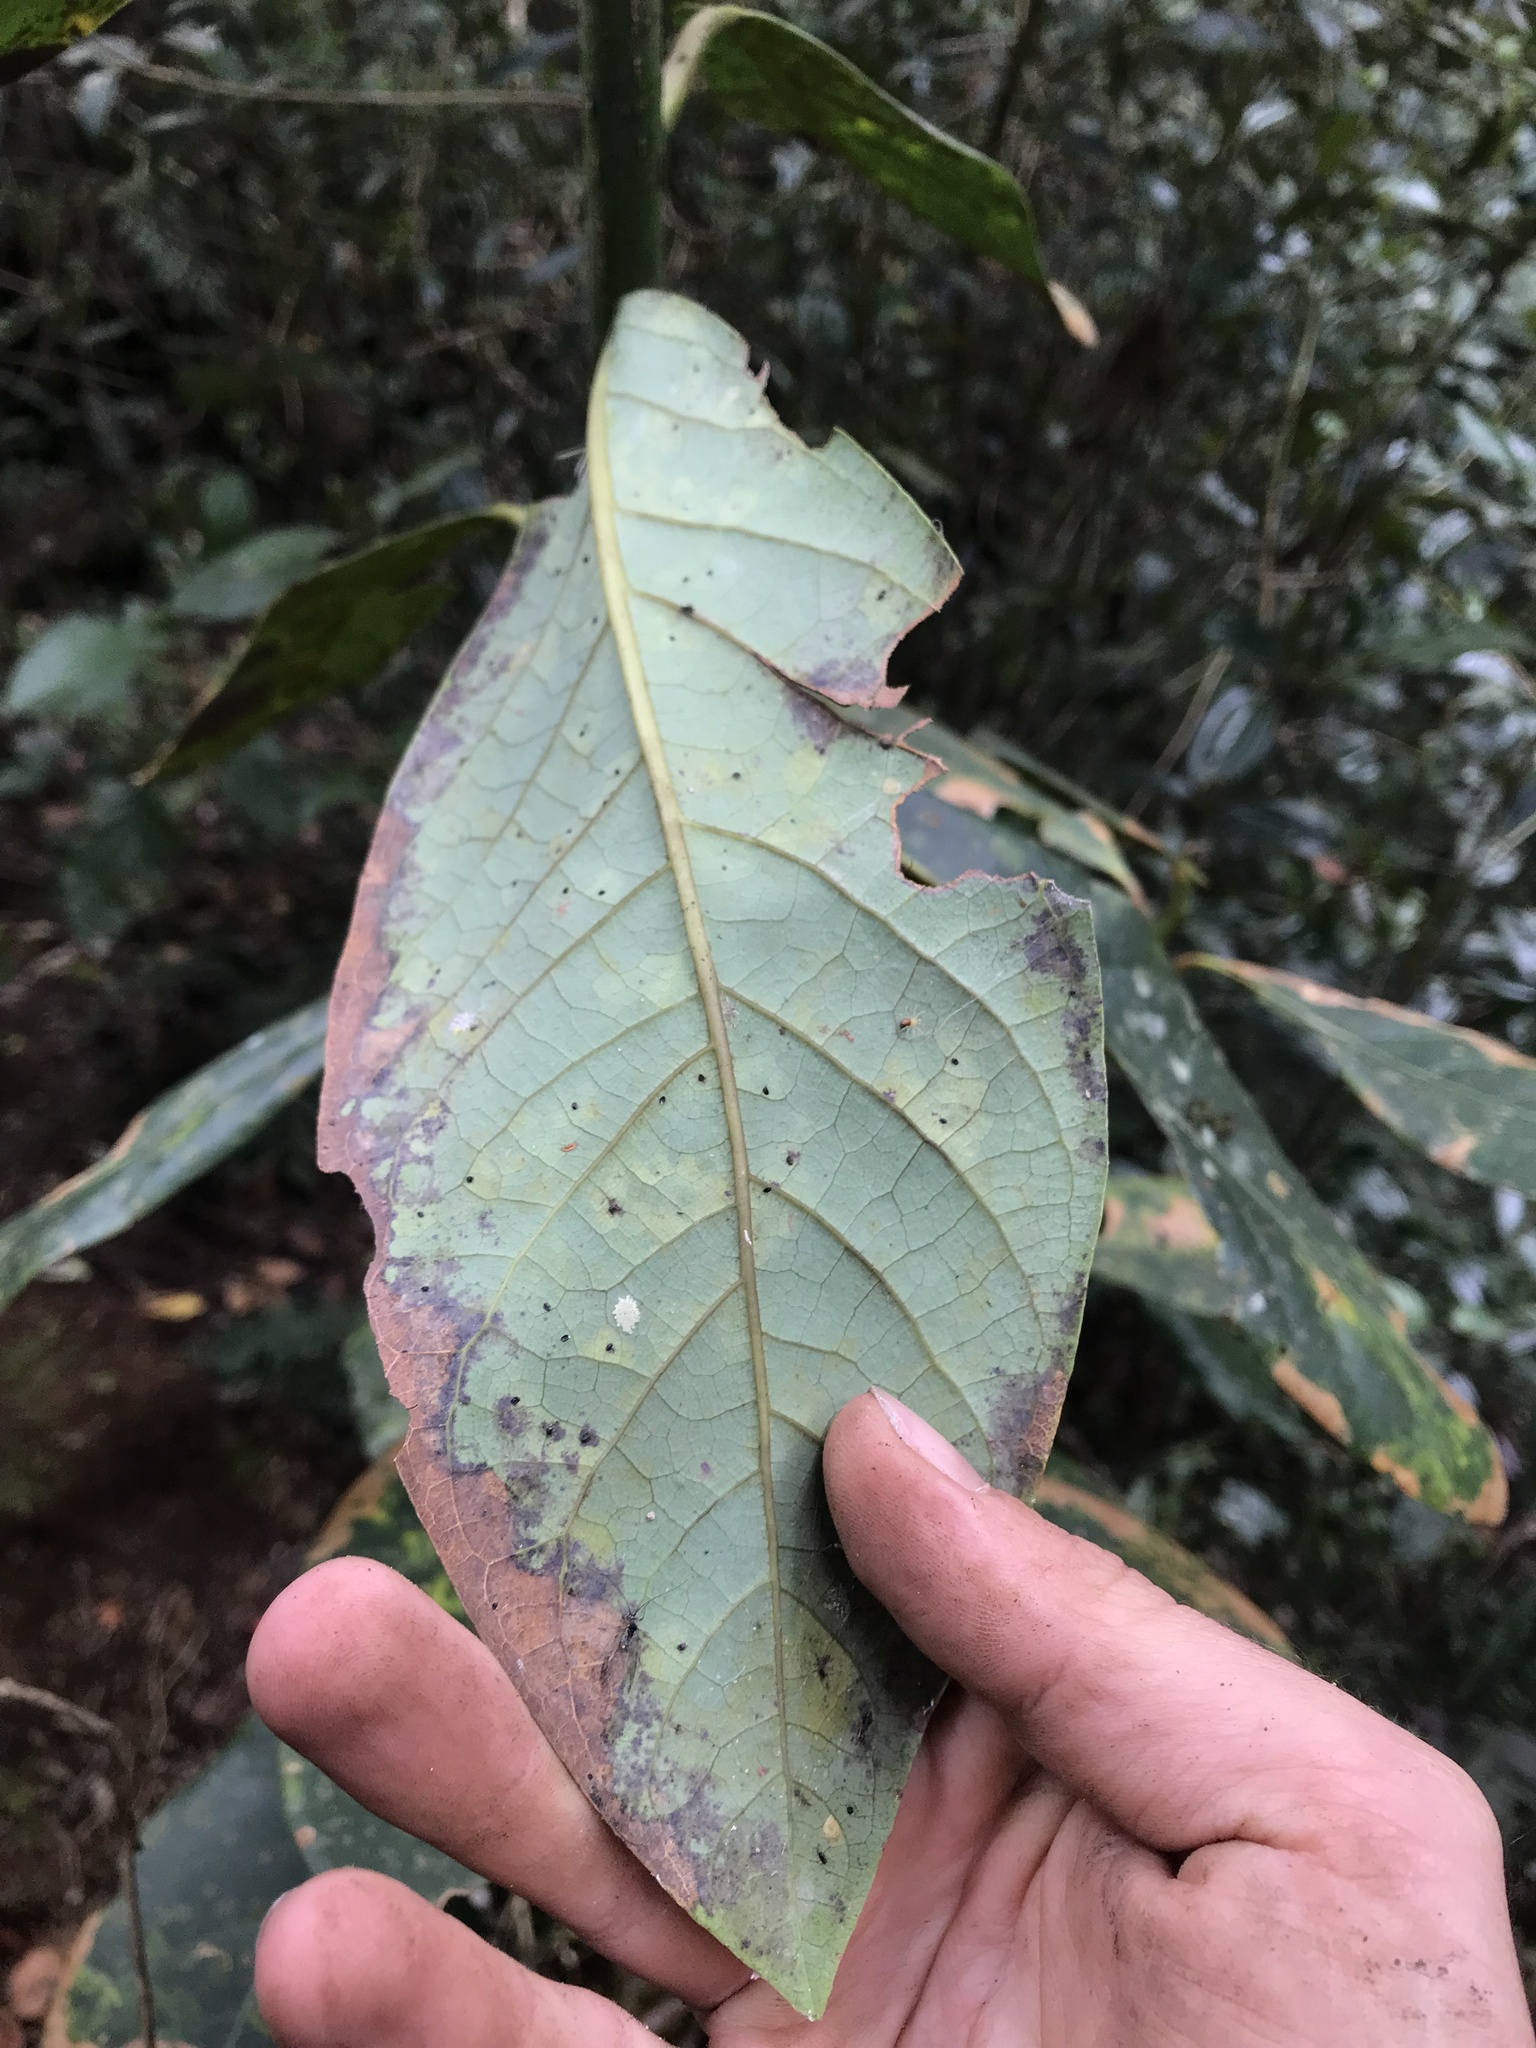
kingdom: Plantae
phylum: Tracheophyta
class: Magnoliopsida
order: Laurales
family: Lauraceae
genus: Persea
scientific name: Persea mutisii
